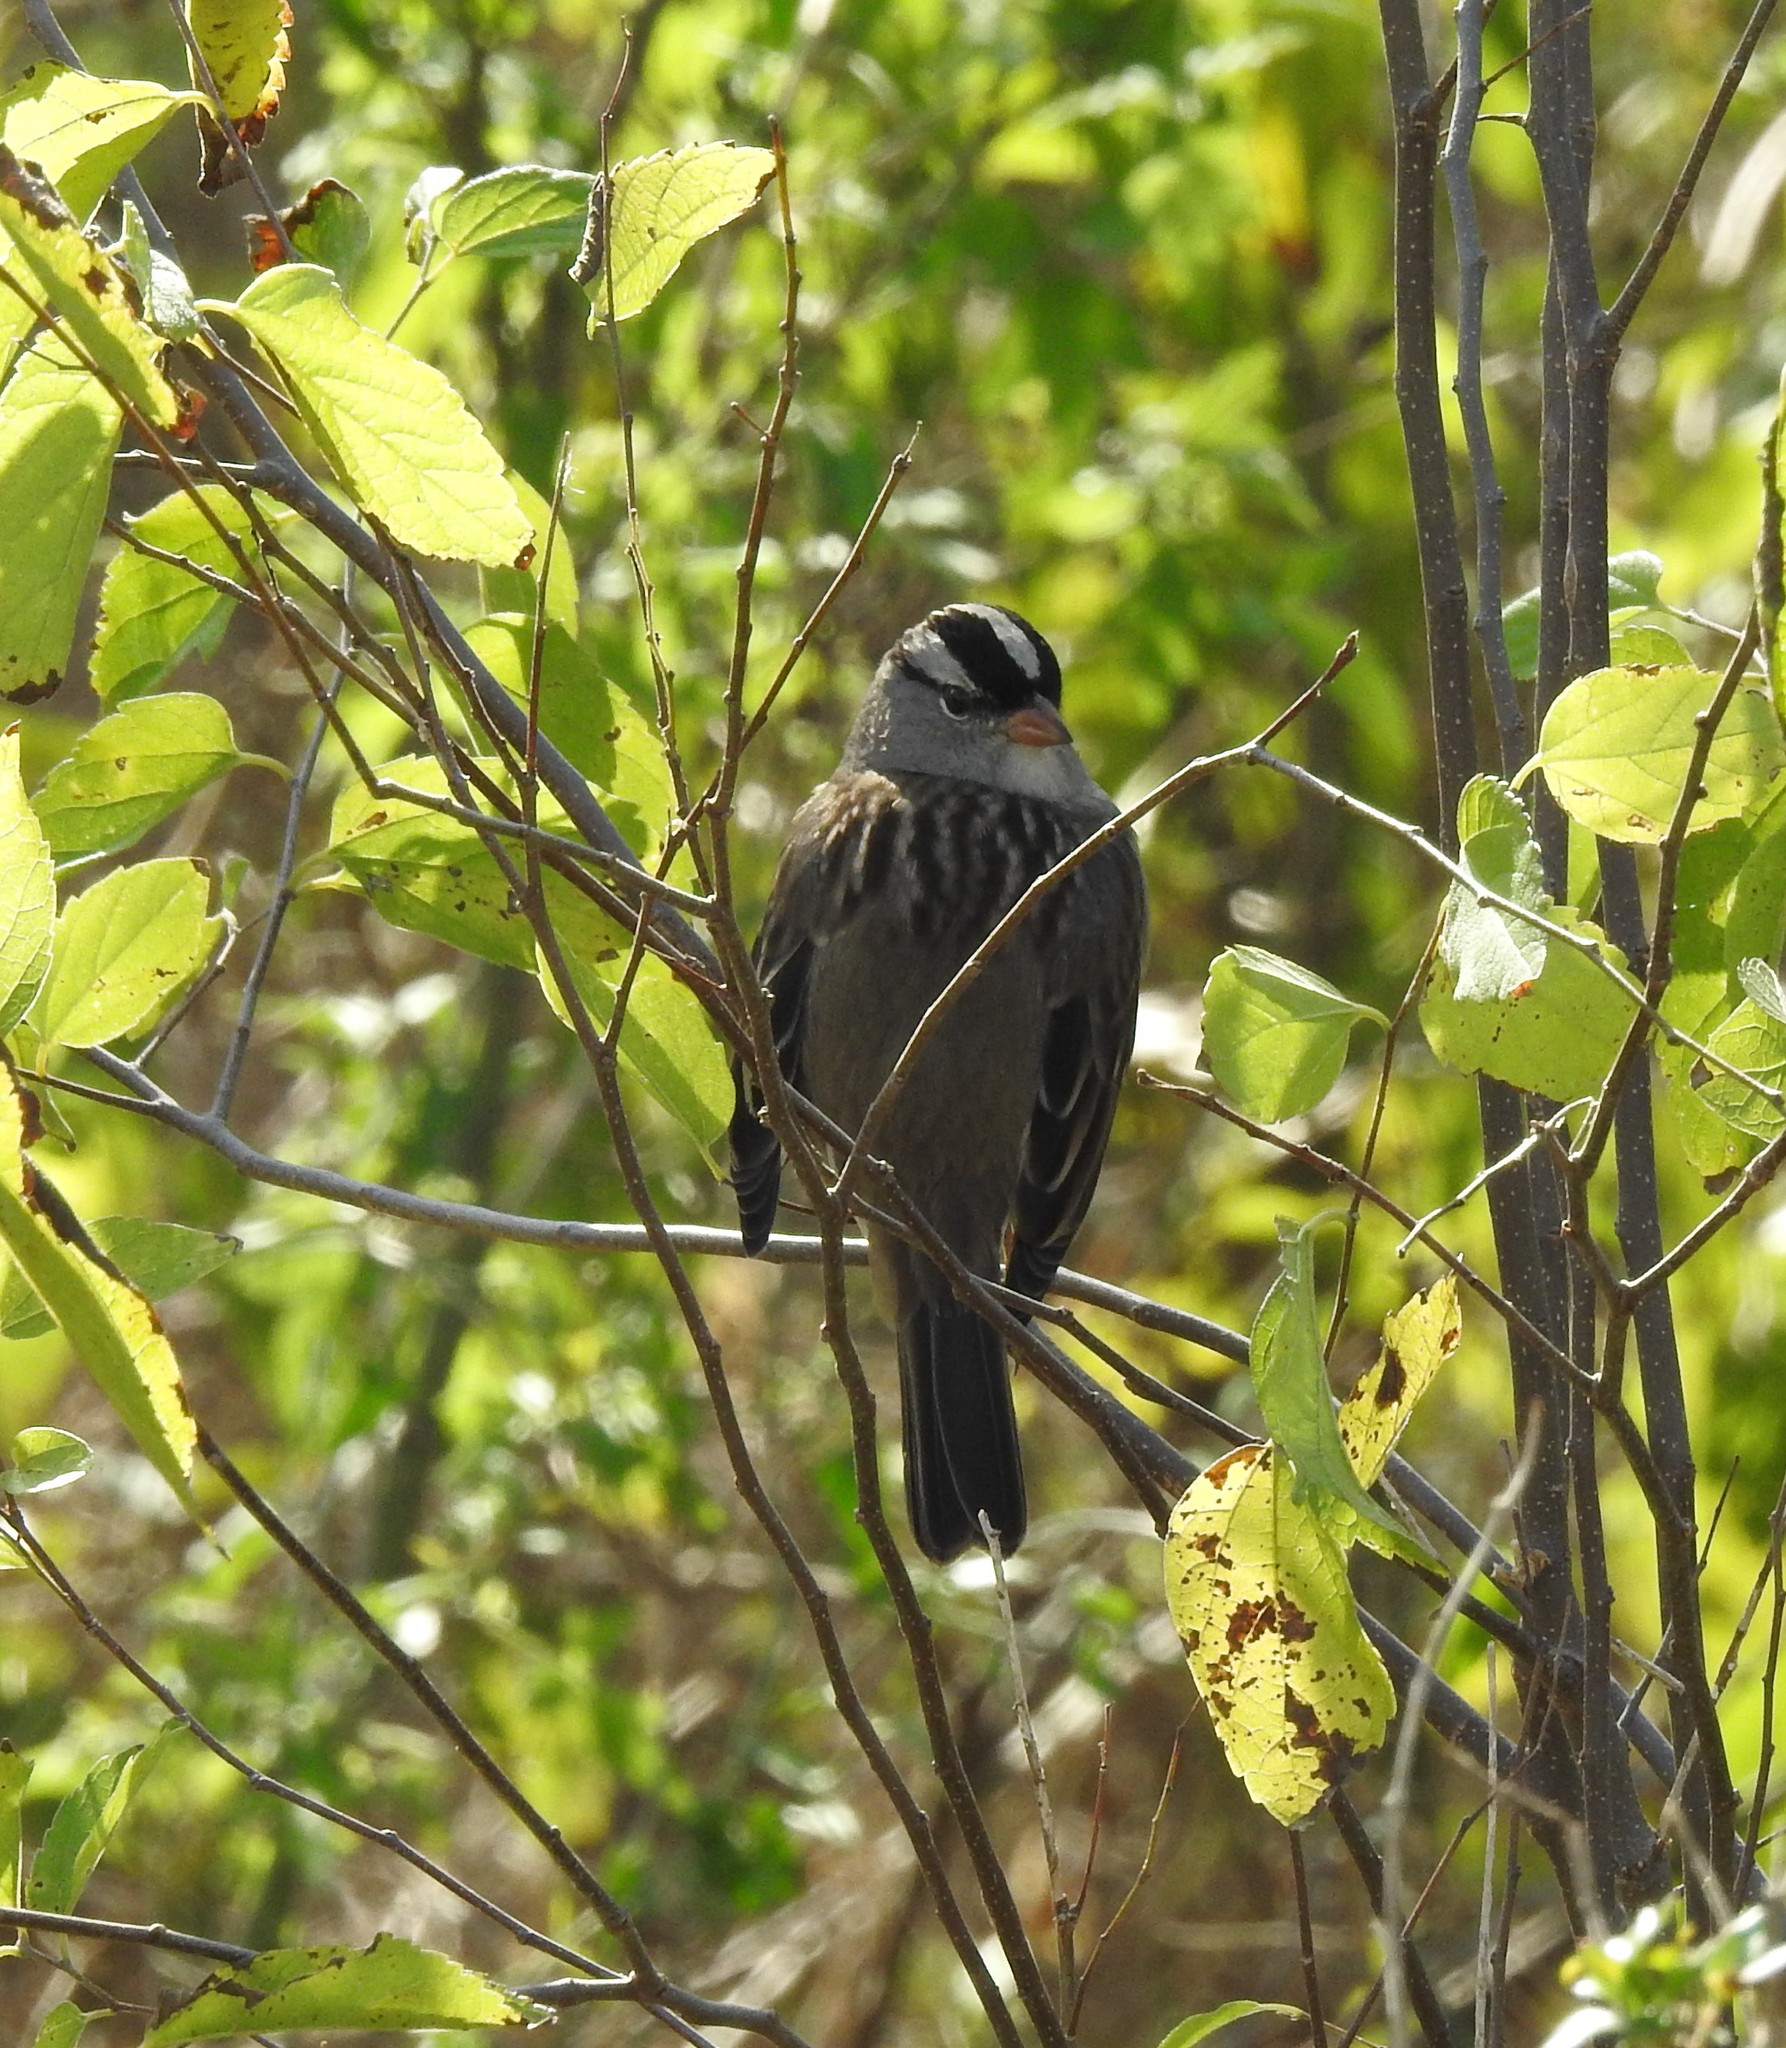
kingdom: Animalia
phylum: Chordata
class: Aves
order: Passeriformes
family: Passerellidae
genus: Zonotrichia
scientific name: Zonotrichia leucophrys
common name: White-crowned sparrow
